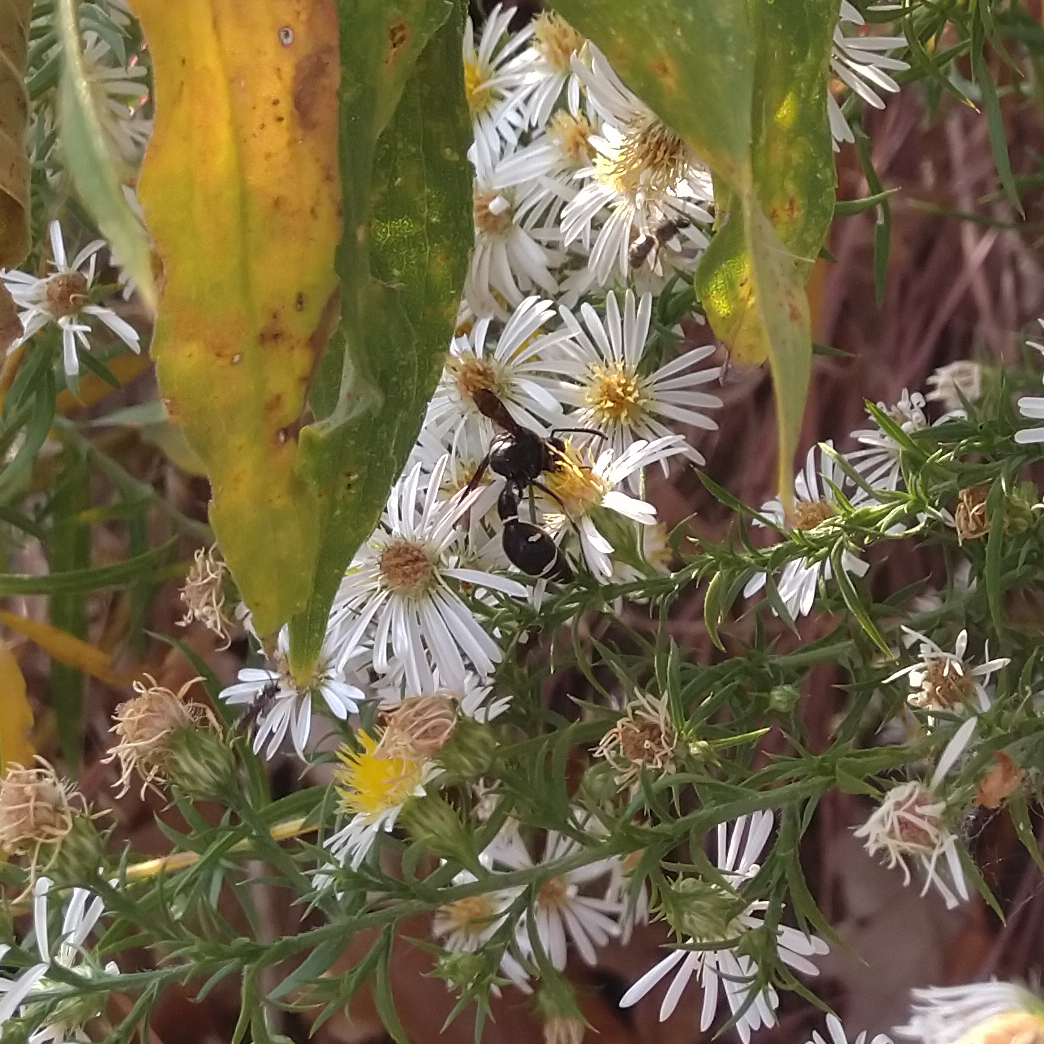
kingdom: Animalia
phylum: Arthropoda
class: Insecta
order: Hymenoptera
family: Vespidae
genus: Eumenes
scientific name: Eumenes fraternus
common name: Fraternal potter wasp
